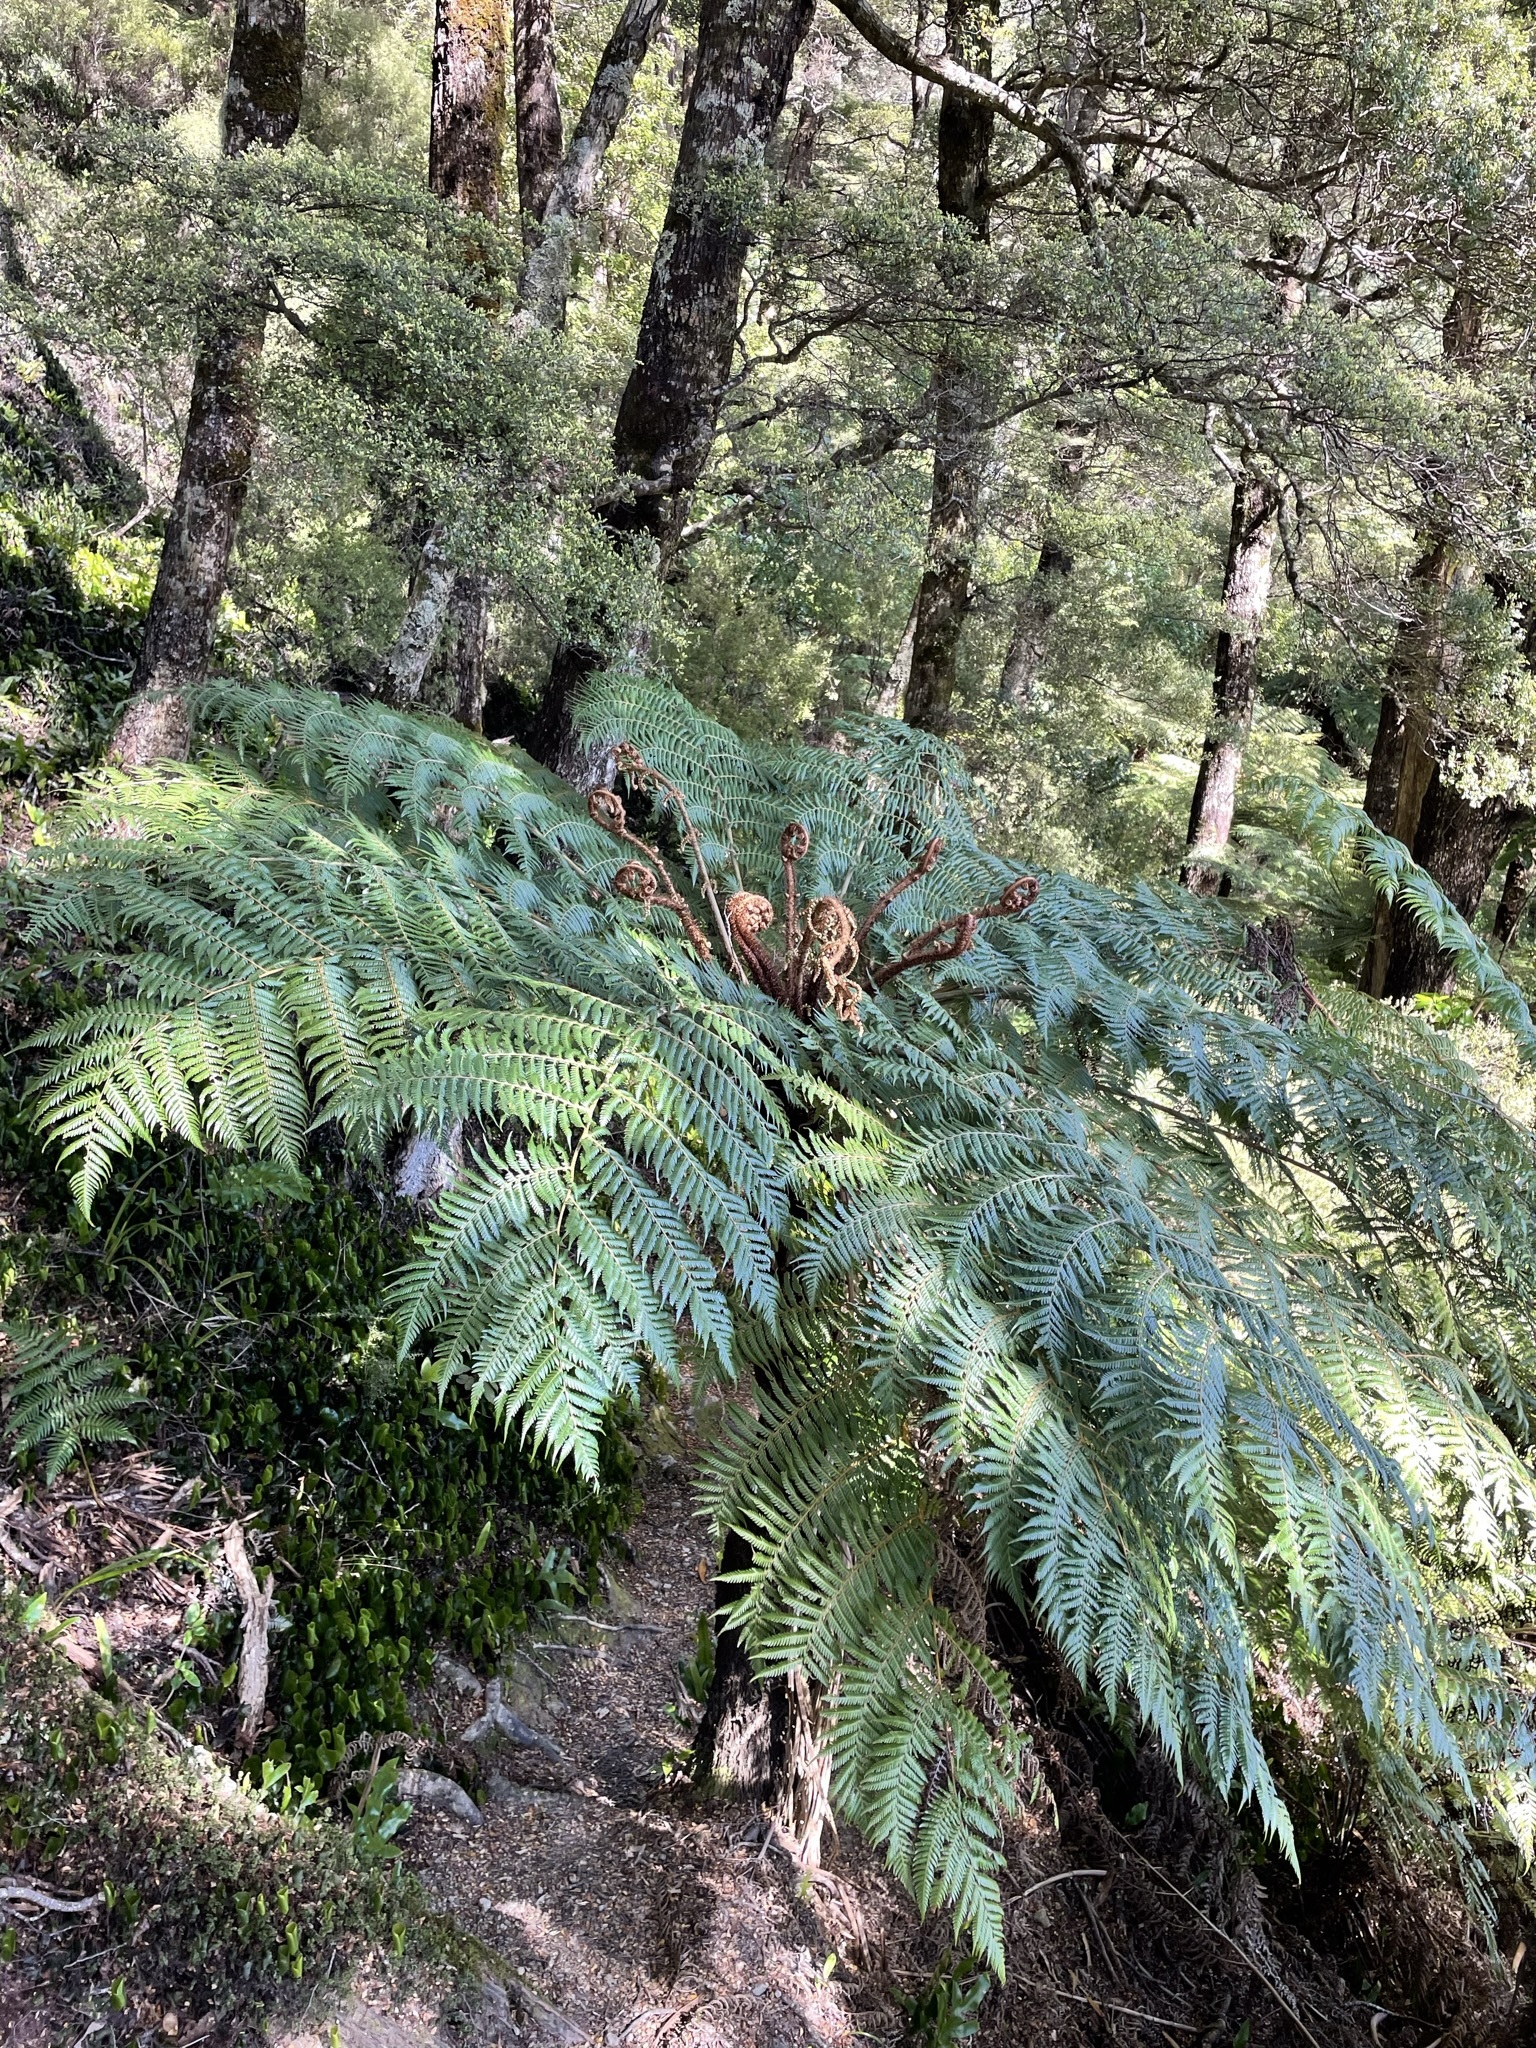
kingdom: Plantae
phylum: Tracheophyta
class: Polypodiopsida
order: Cyatheales
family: Cyatheaceae
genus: Alsophila
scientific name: Alsophila dealbata
